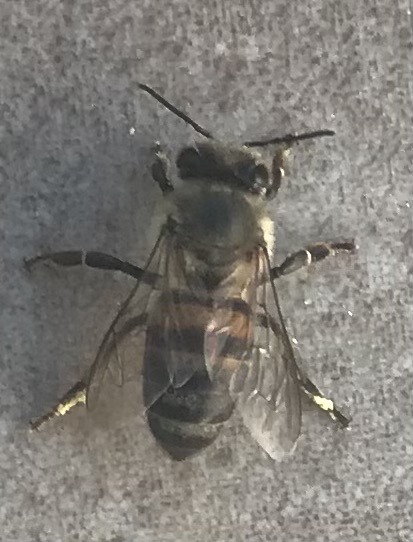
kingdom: Animalia
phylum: Arthropoda
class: Insecta
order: Hymenoptera
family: Apidae
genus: Apis
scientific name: Apis mellifera
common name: Honey bee
